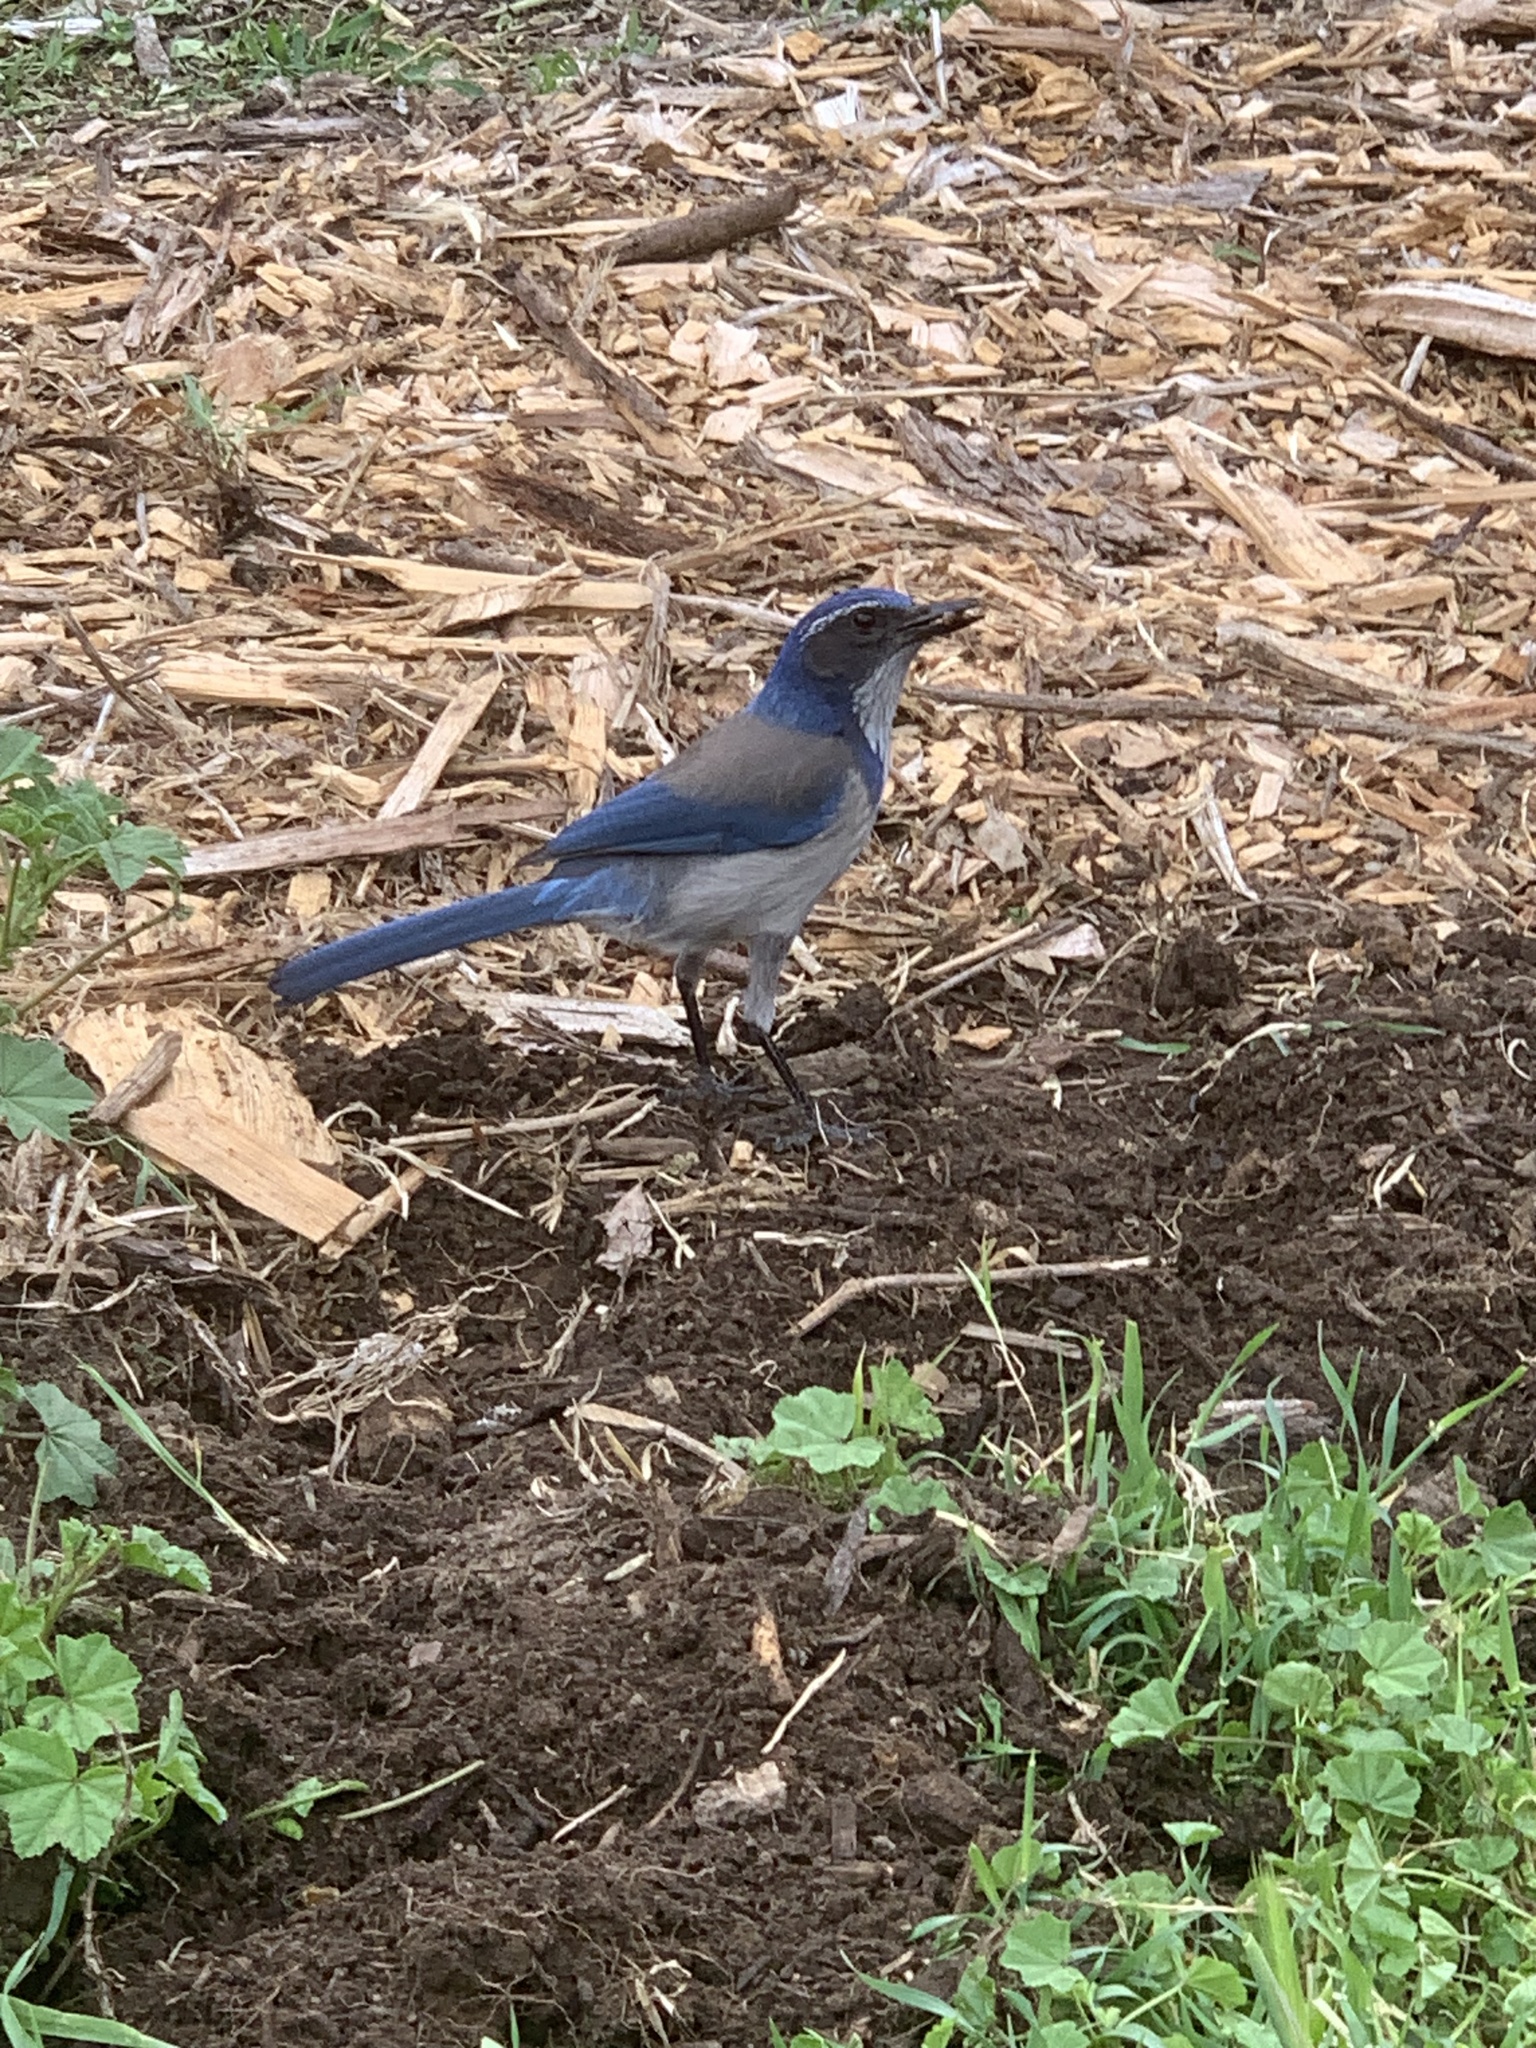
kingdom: Animalia
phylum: Chordata
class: Aves
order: Passeriformes
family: Corvidae
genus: Aphelocoma
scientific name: Aphelocoma californica
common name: California scrub-jay
